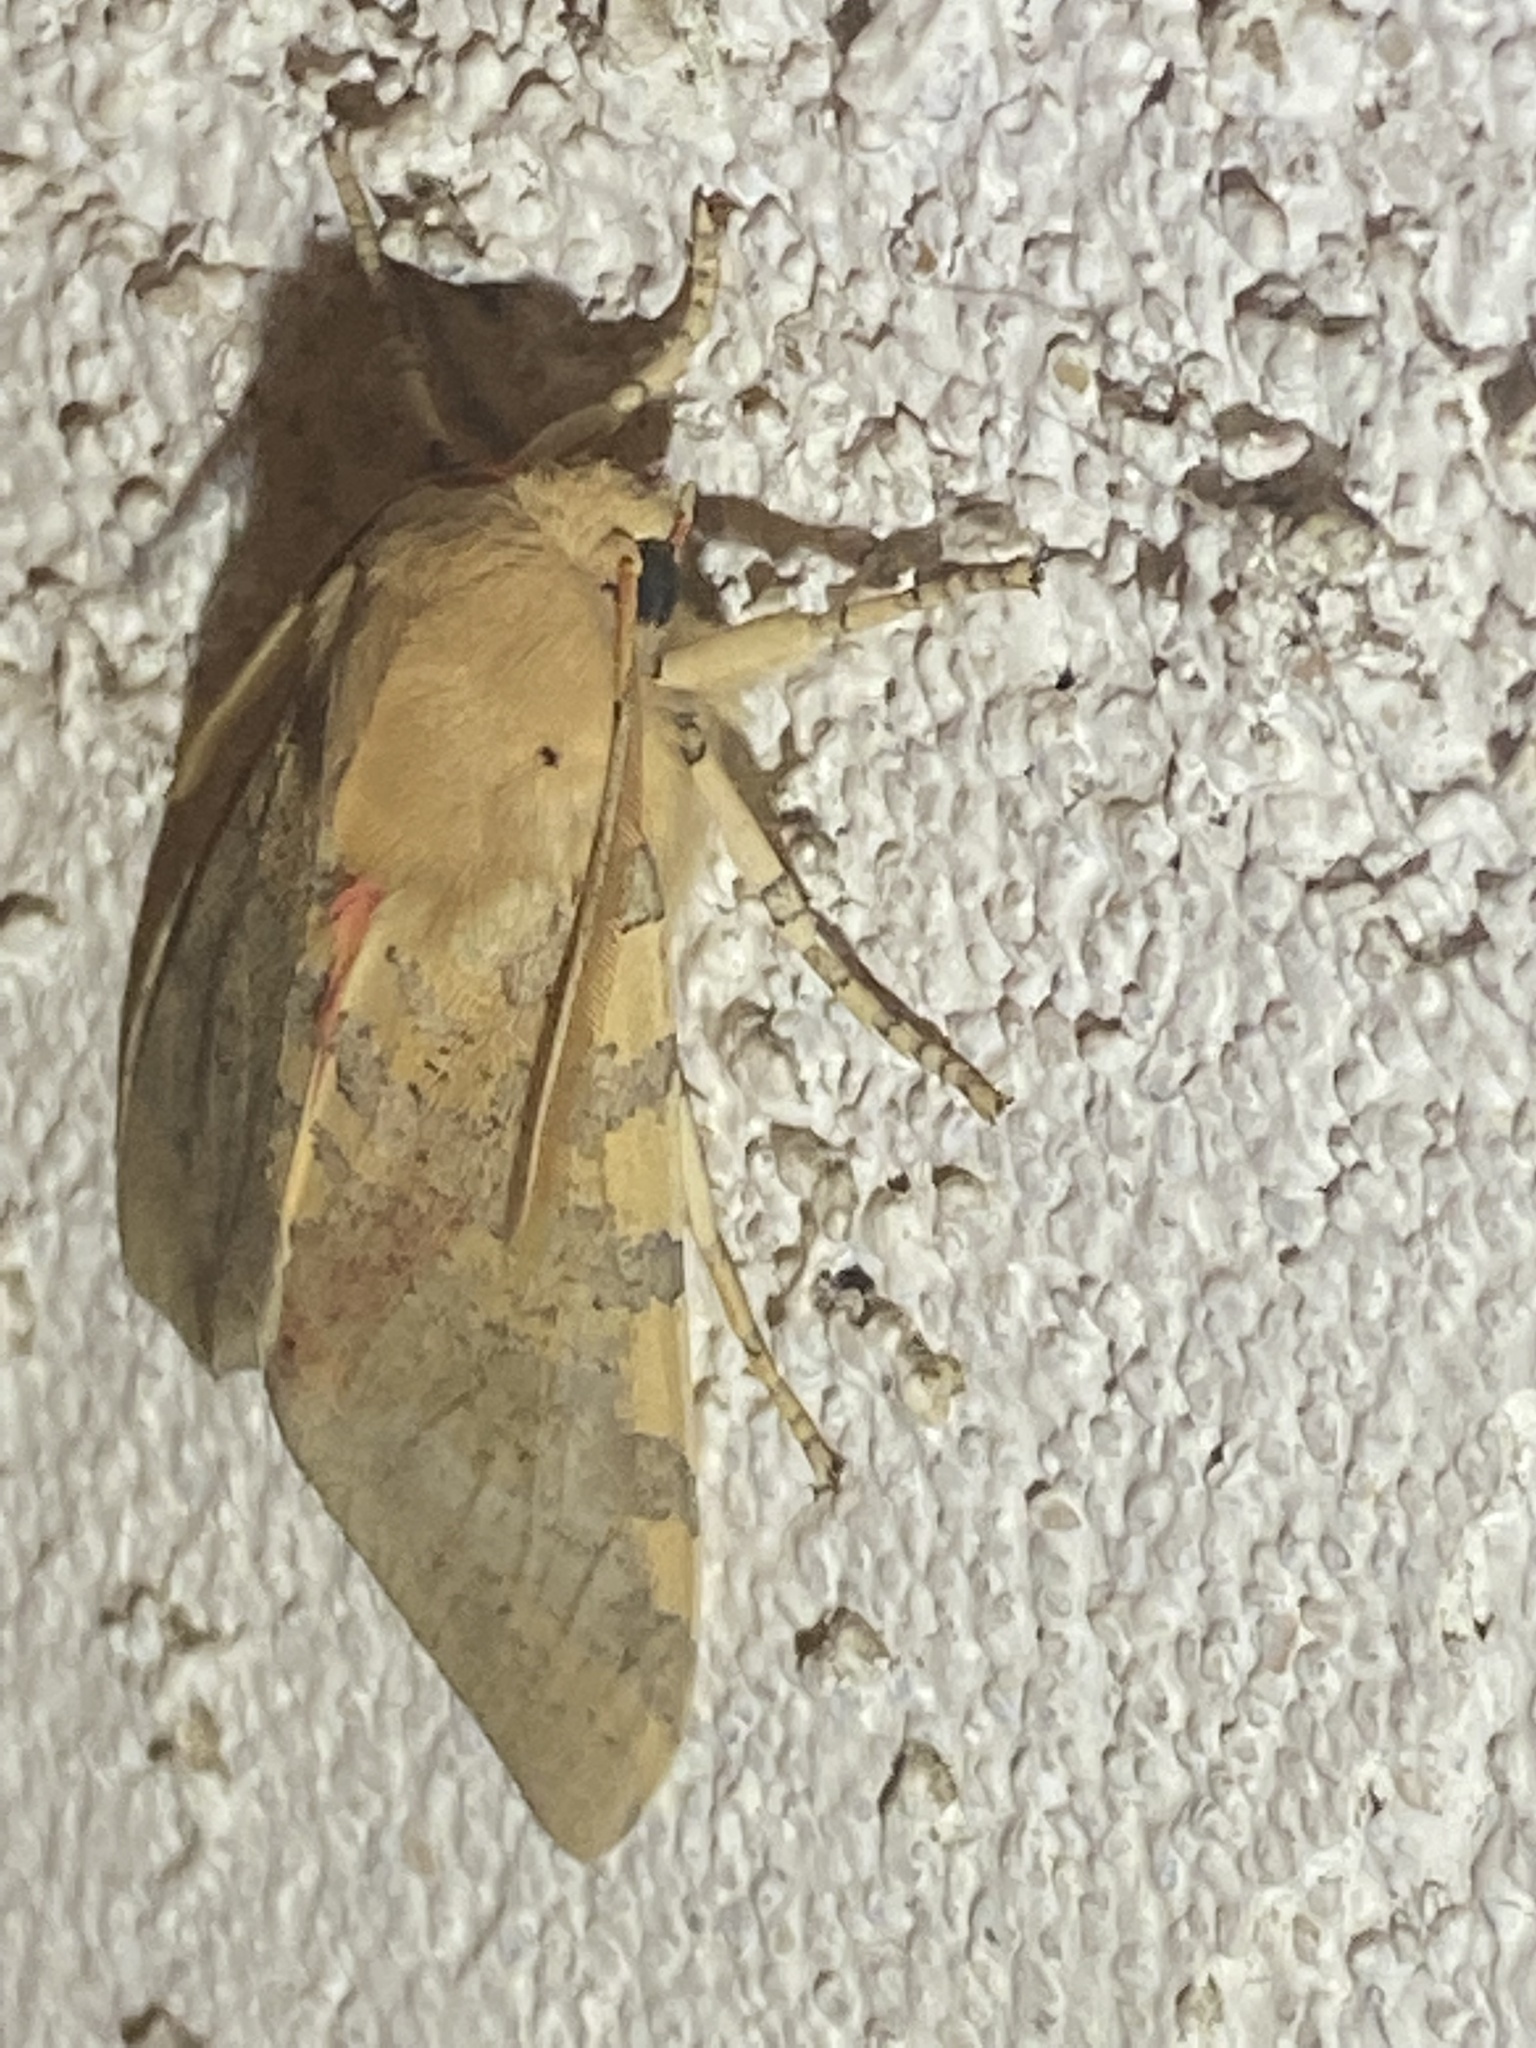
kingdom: Animalia
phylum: Arthropoda
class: Insecta
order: Lepidoptera
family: Erebidae
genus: Hemihyalea
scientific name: Hemihyalea edwardsii
